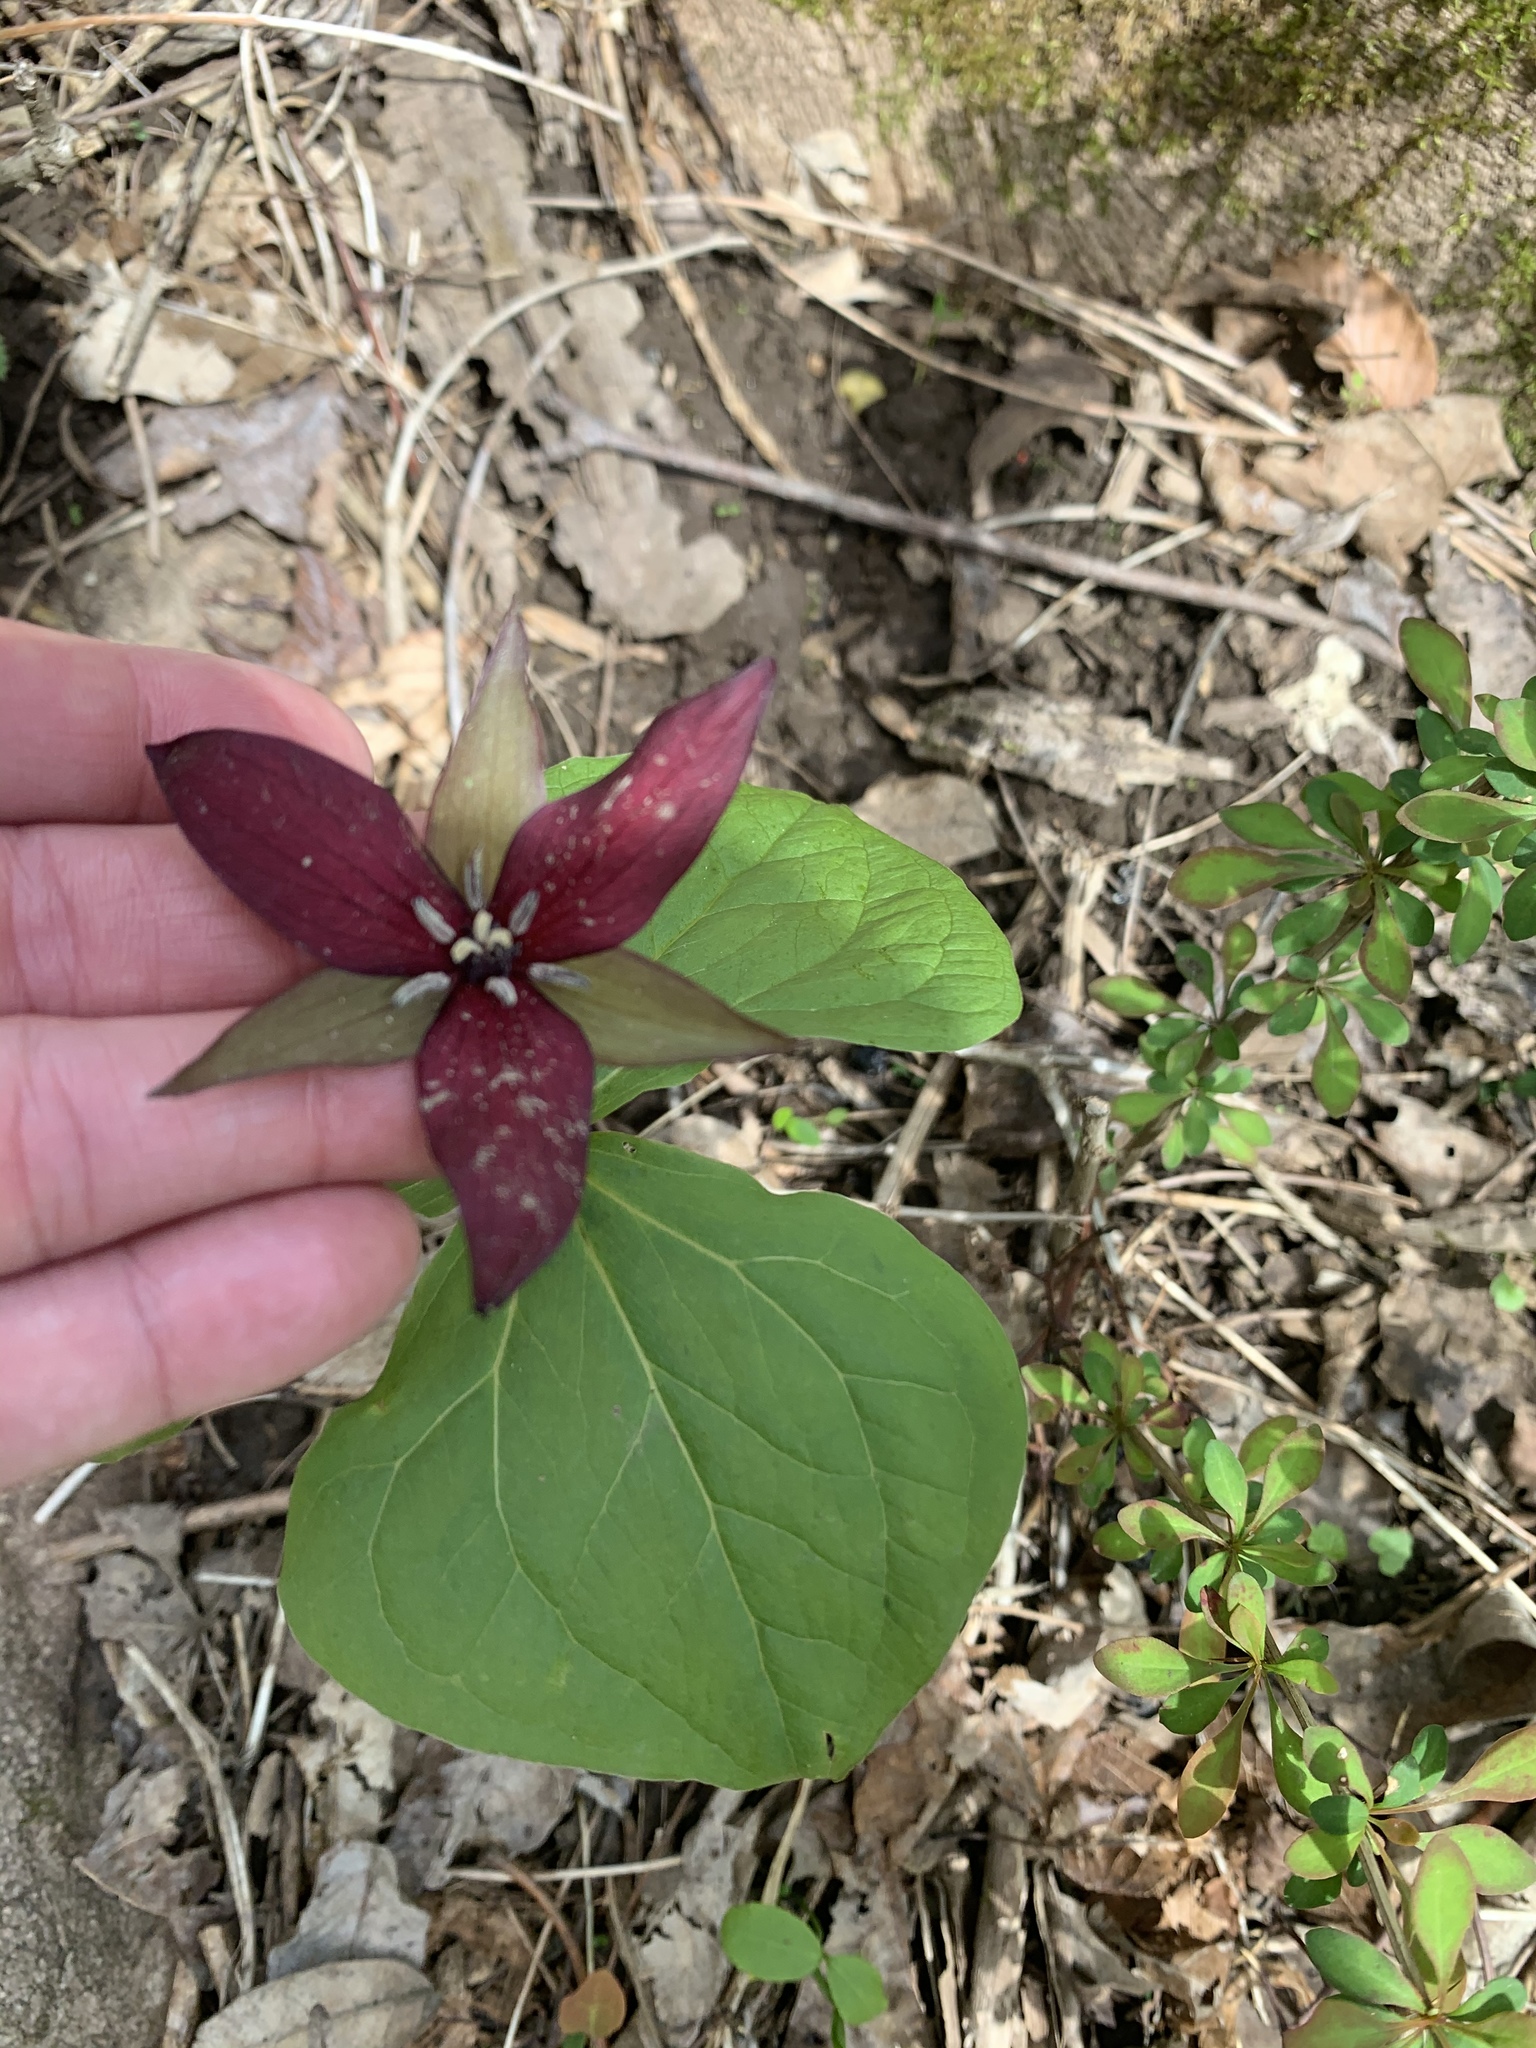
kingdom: Plantae
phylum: Tracheophyta
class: Liliopsida
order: Liliales
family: Melanthiaceae
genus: Trillium
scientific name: Trillium erectum
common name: Purple trillium
